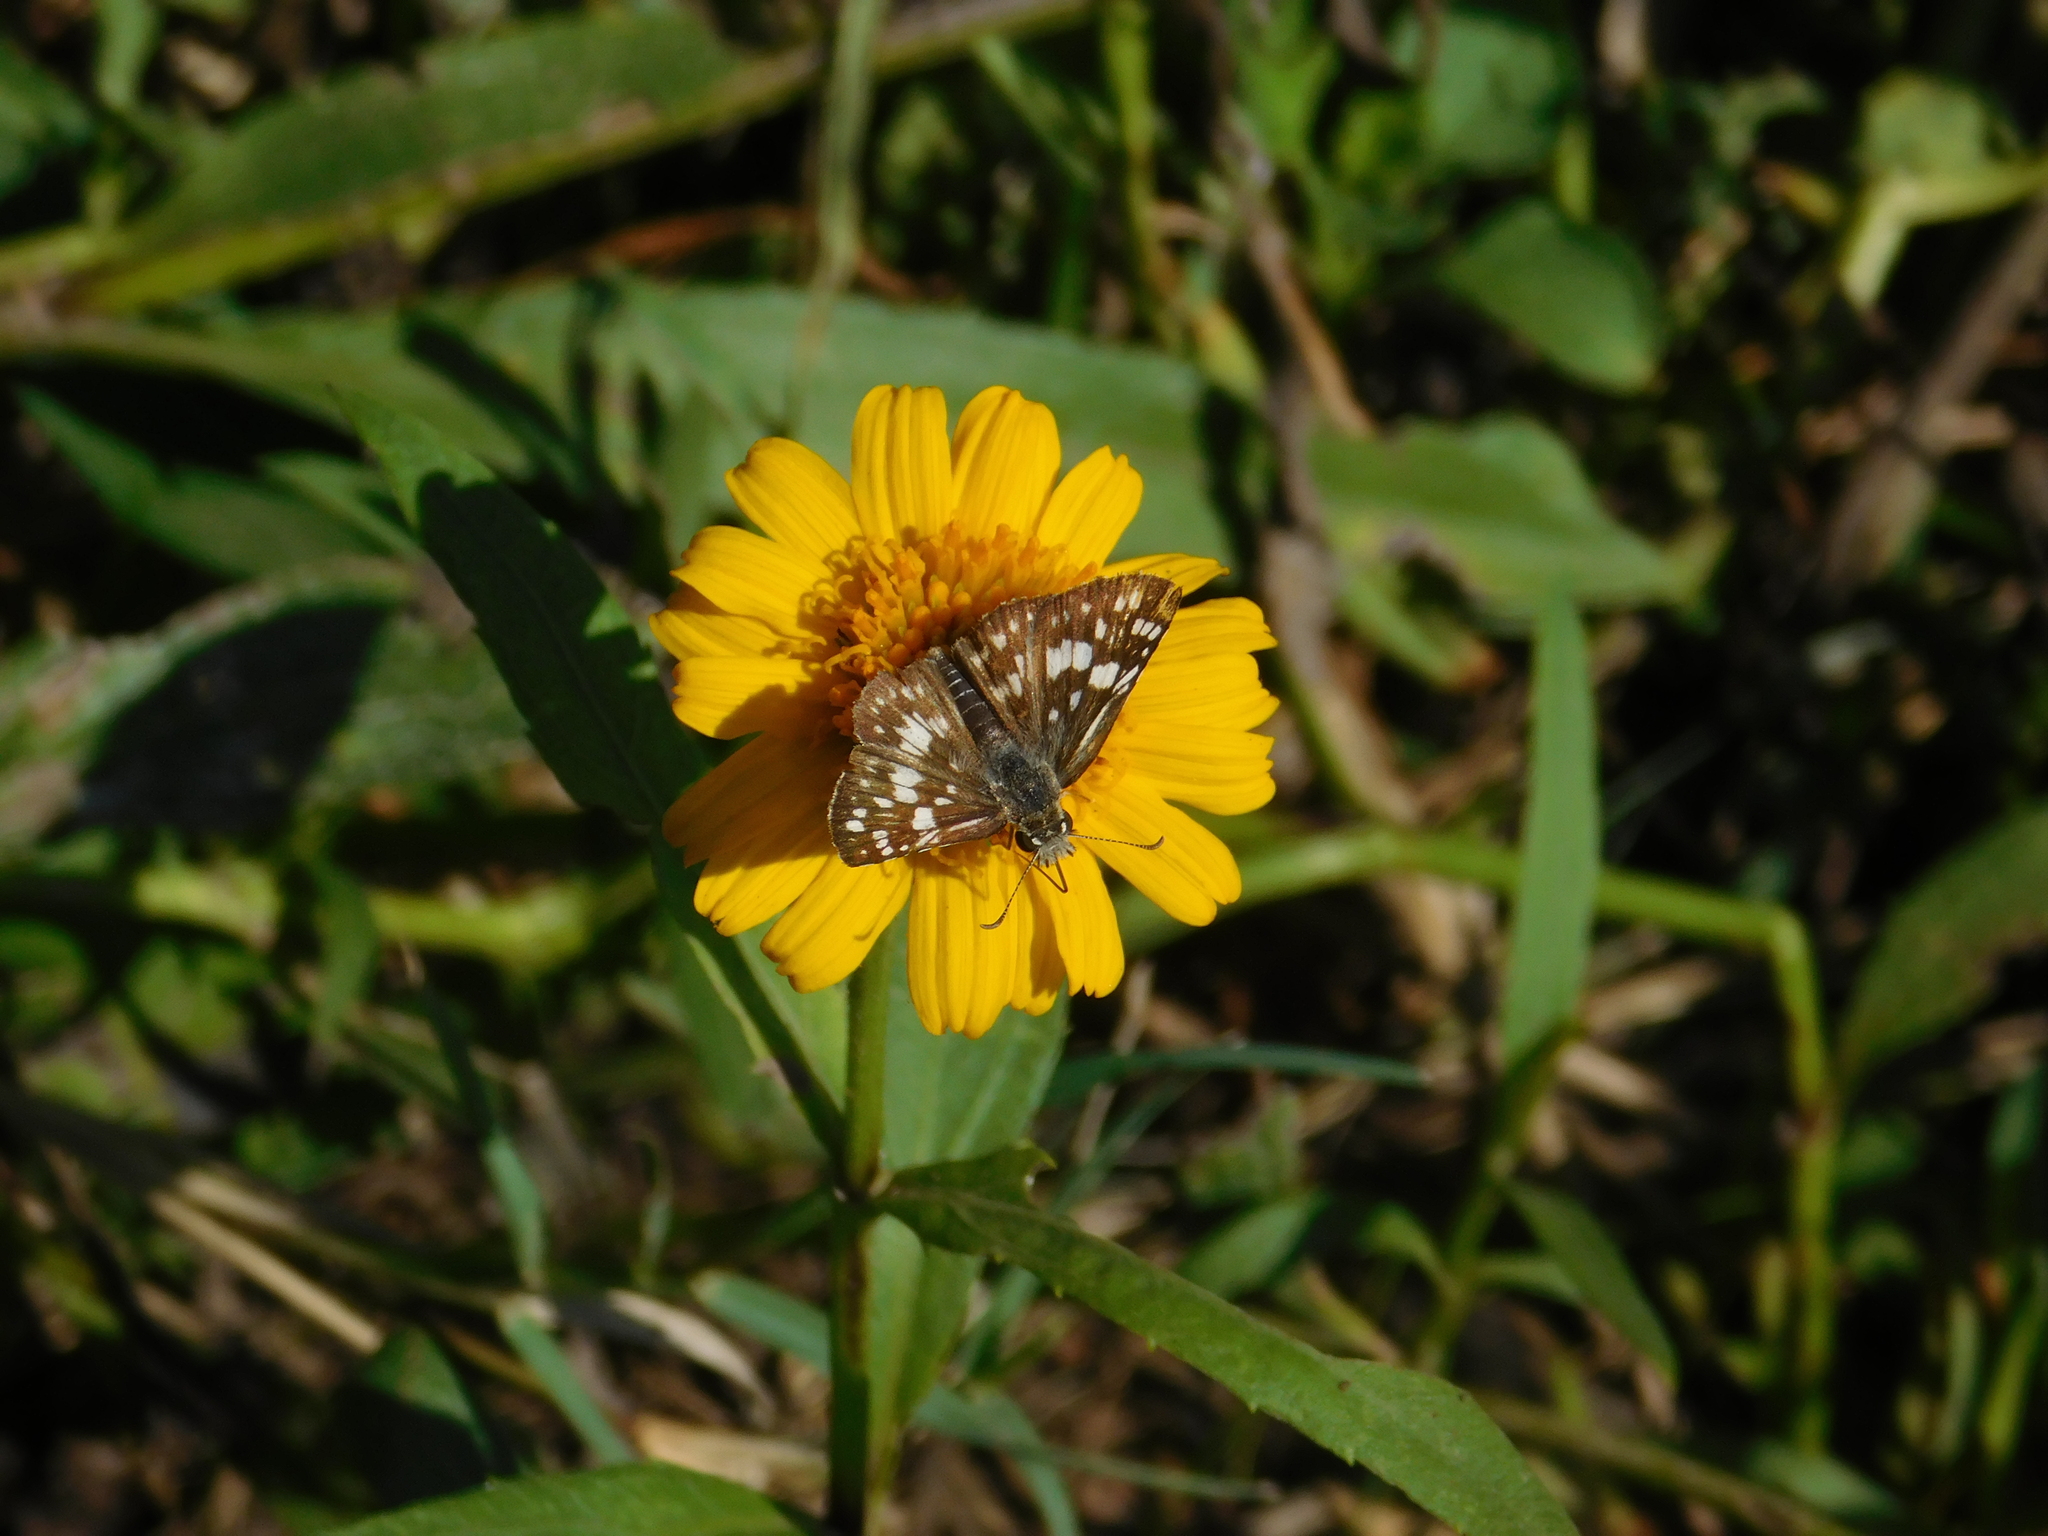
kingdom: Animalia
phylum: Arthropoda
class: Insecta
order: Lepidoptera
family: Hesperiidae
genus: Burnsius
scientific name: Burnsius orcynoides
